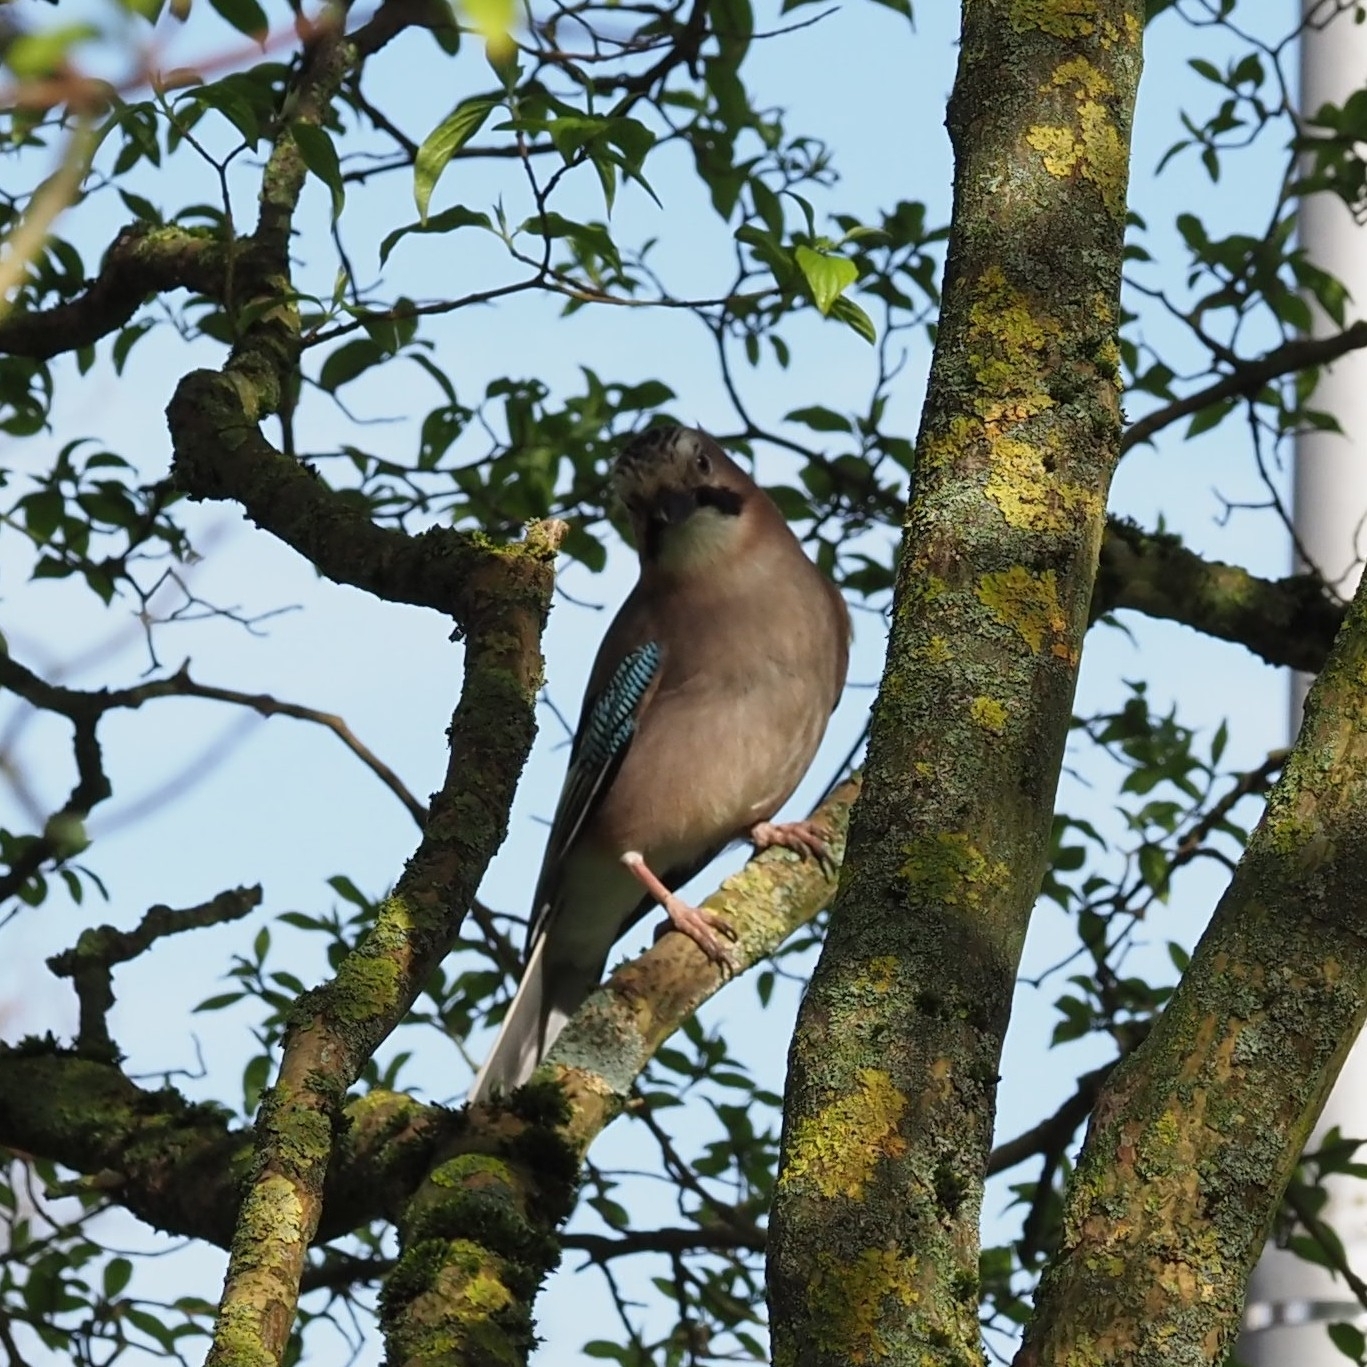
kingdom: Animalia
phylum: Chordata
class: Aves
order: Passeriformes
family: Corvidae
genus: Garrulus
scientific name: Garrulus glandarius
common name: Eurasian jay
